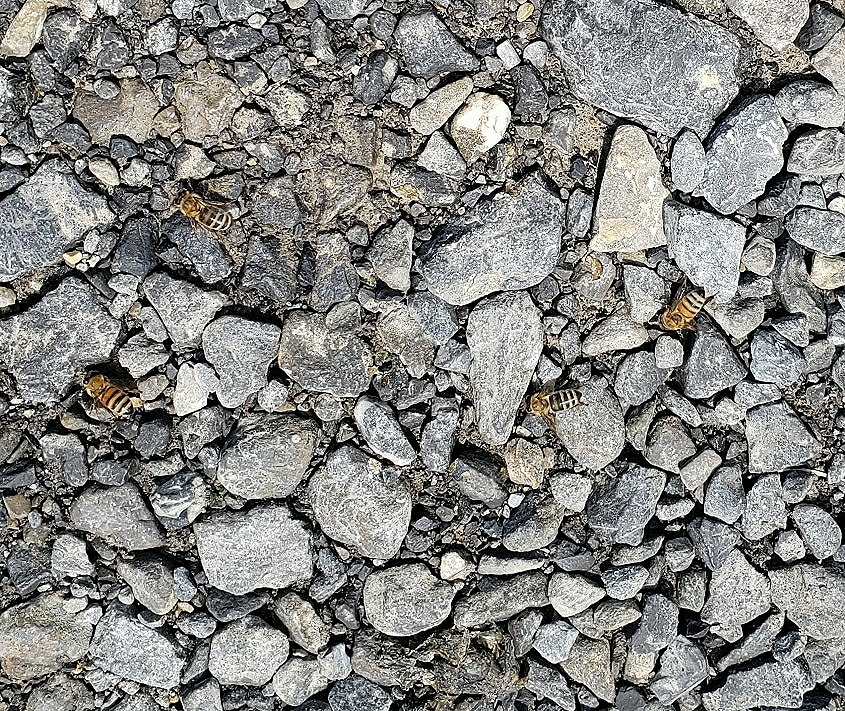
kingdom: Animalia
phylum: Arthropoda
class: Insecta
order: Hymenoptera
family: Apidae
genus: Apis
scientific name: Apis mellifera
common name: Honey bee
